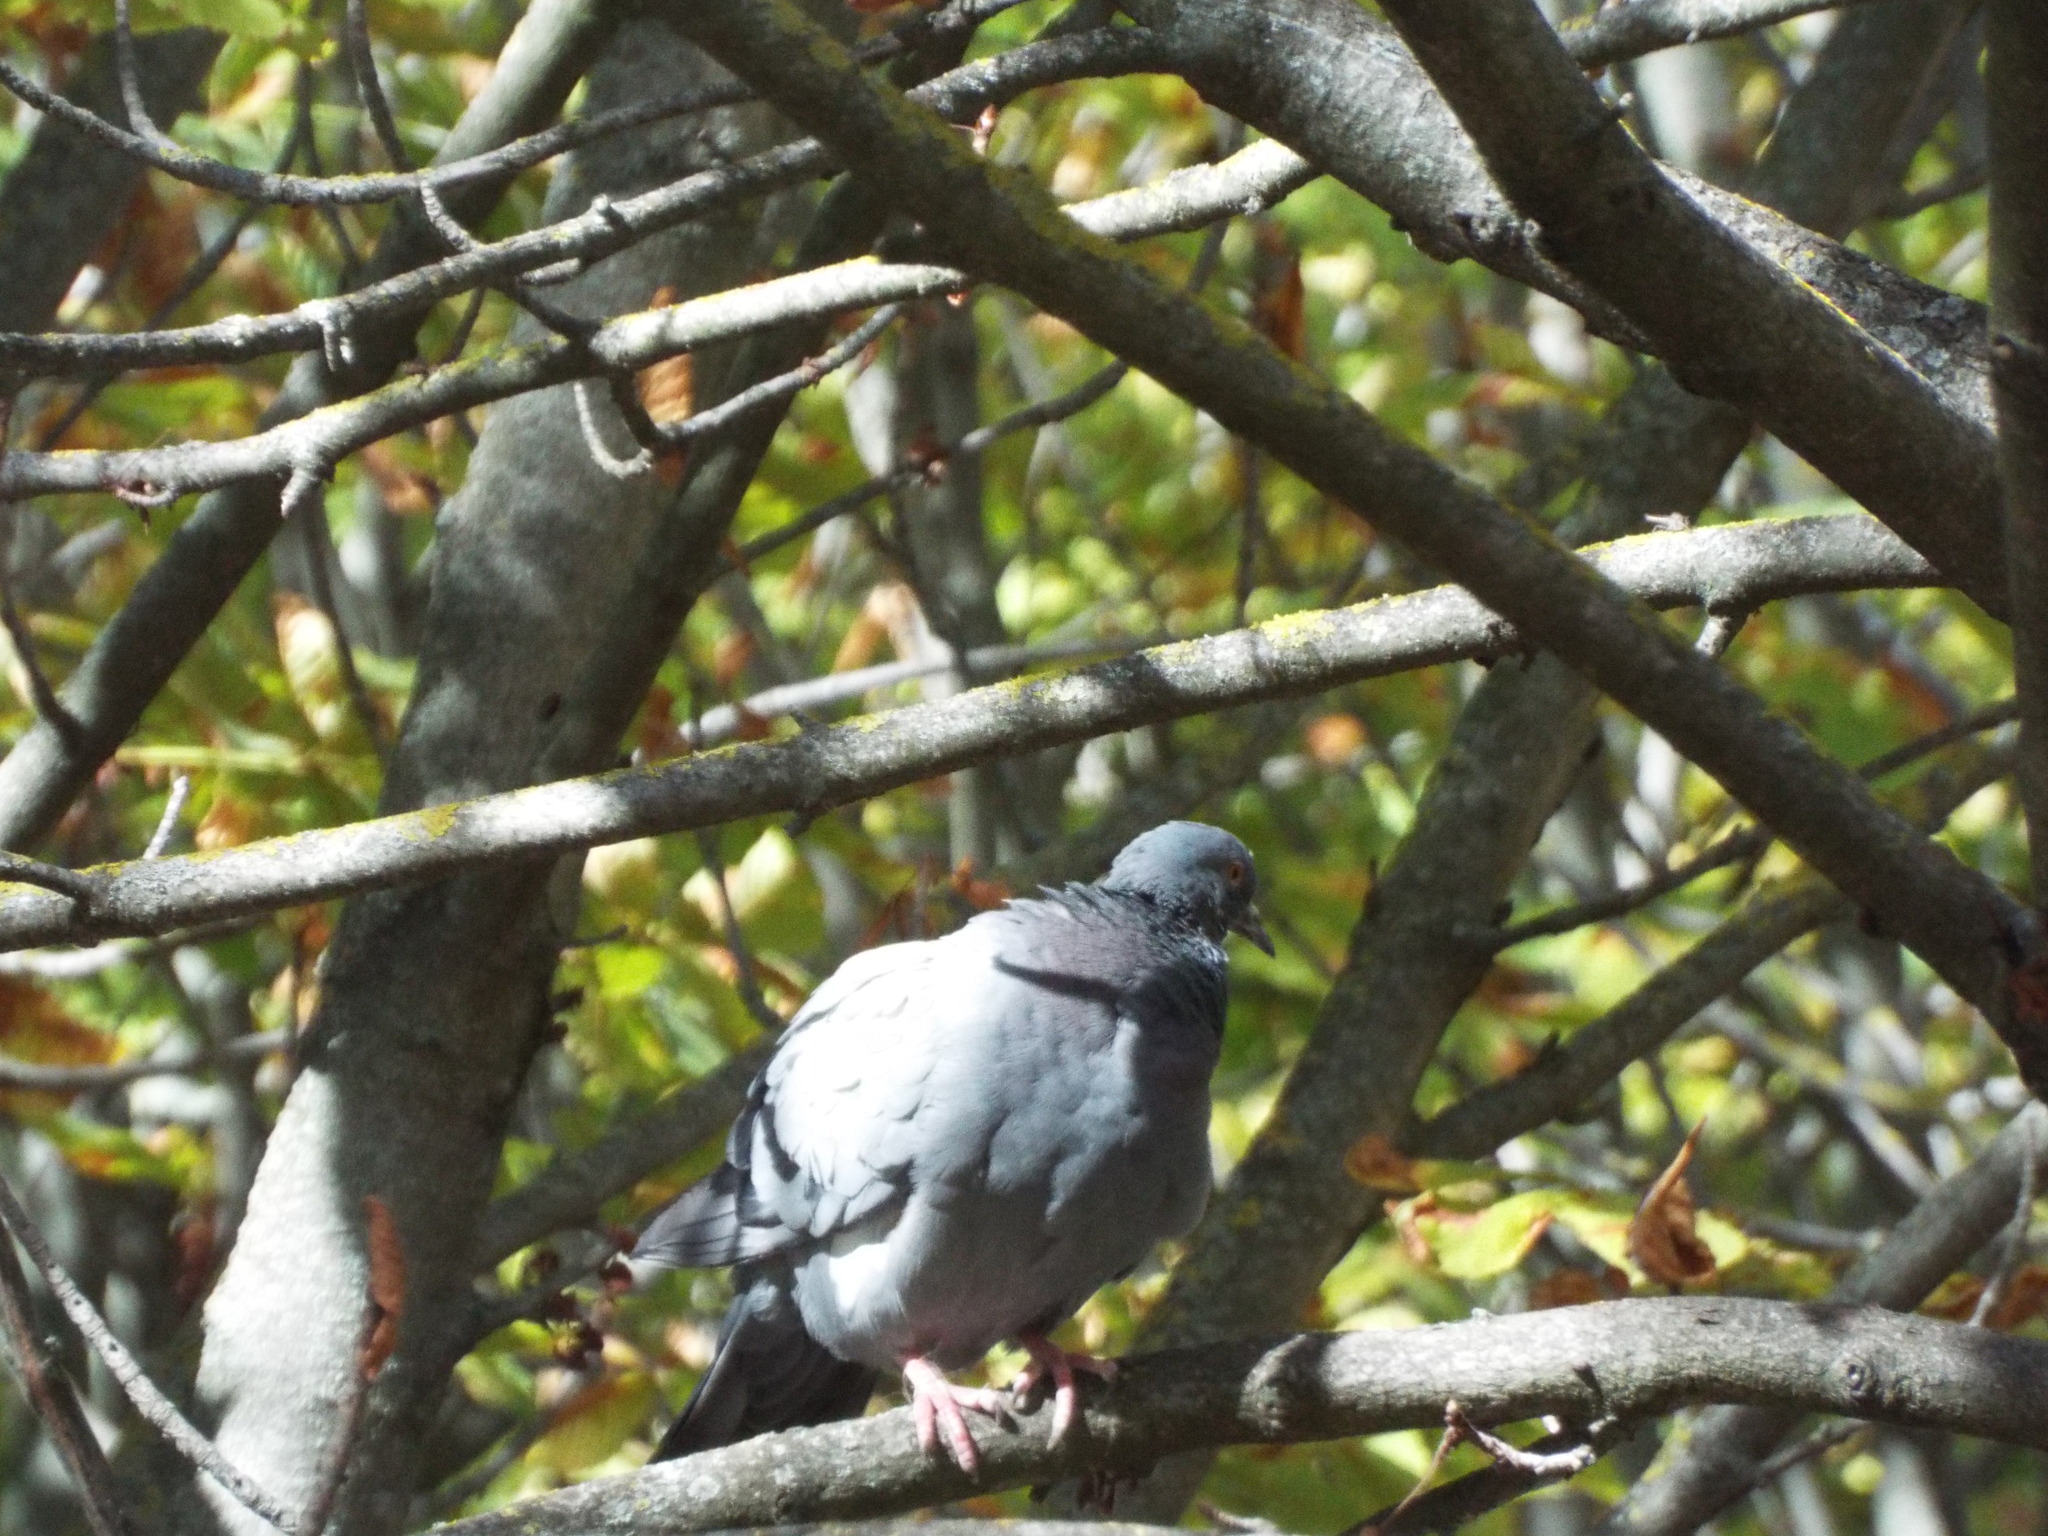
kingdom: Animalia
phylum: Chordata
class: Aves
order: Columbiformes
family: Columbidae
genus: Columba
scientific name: Columba livia
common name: Rock pigeon
